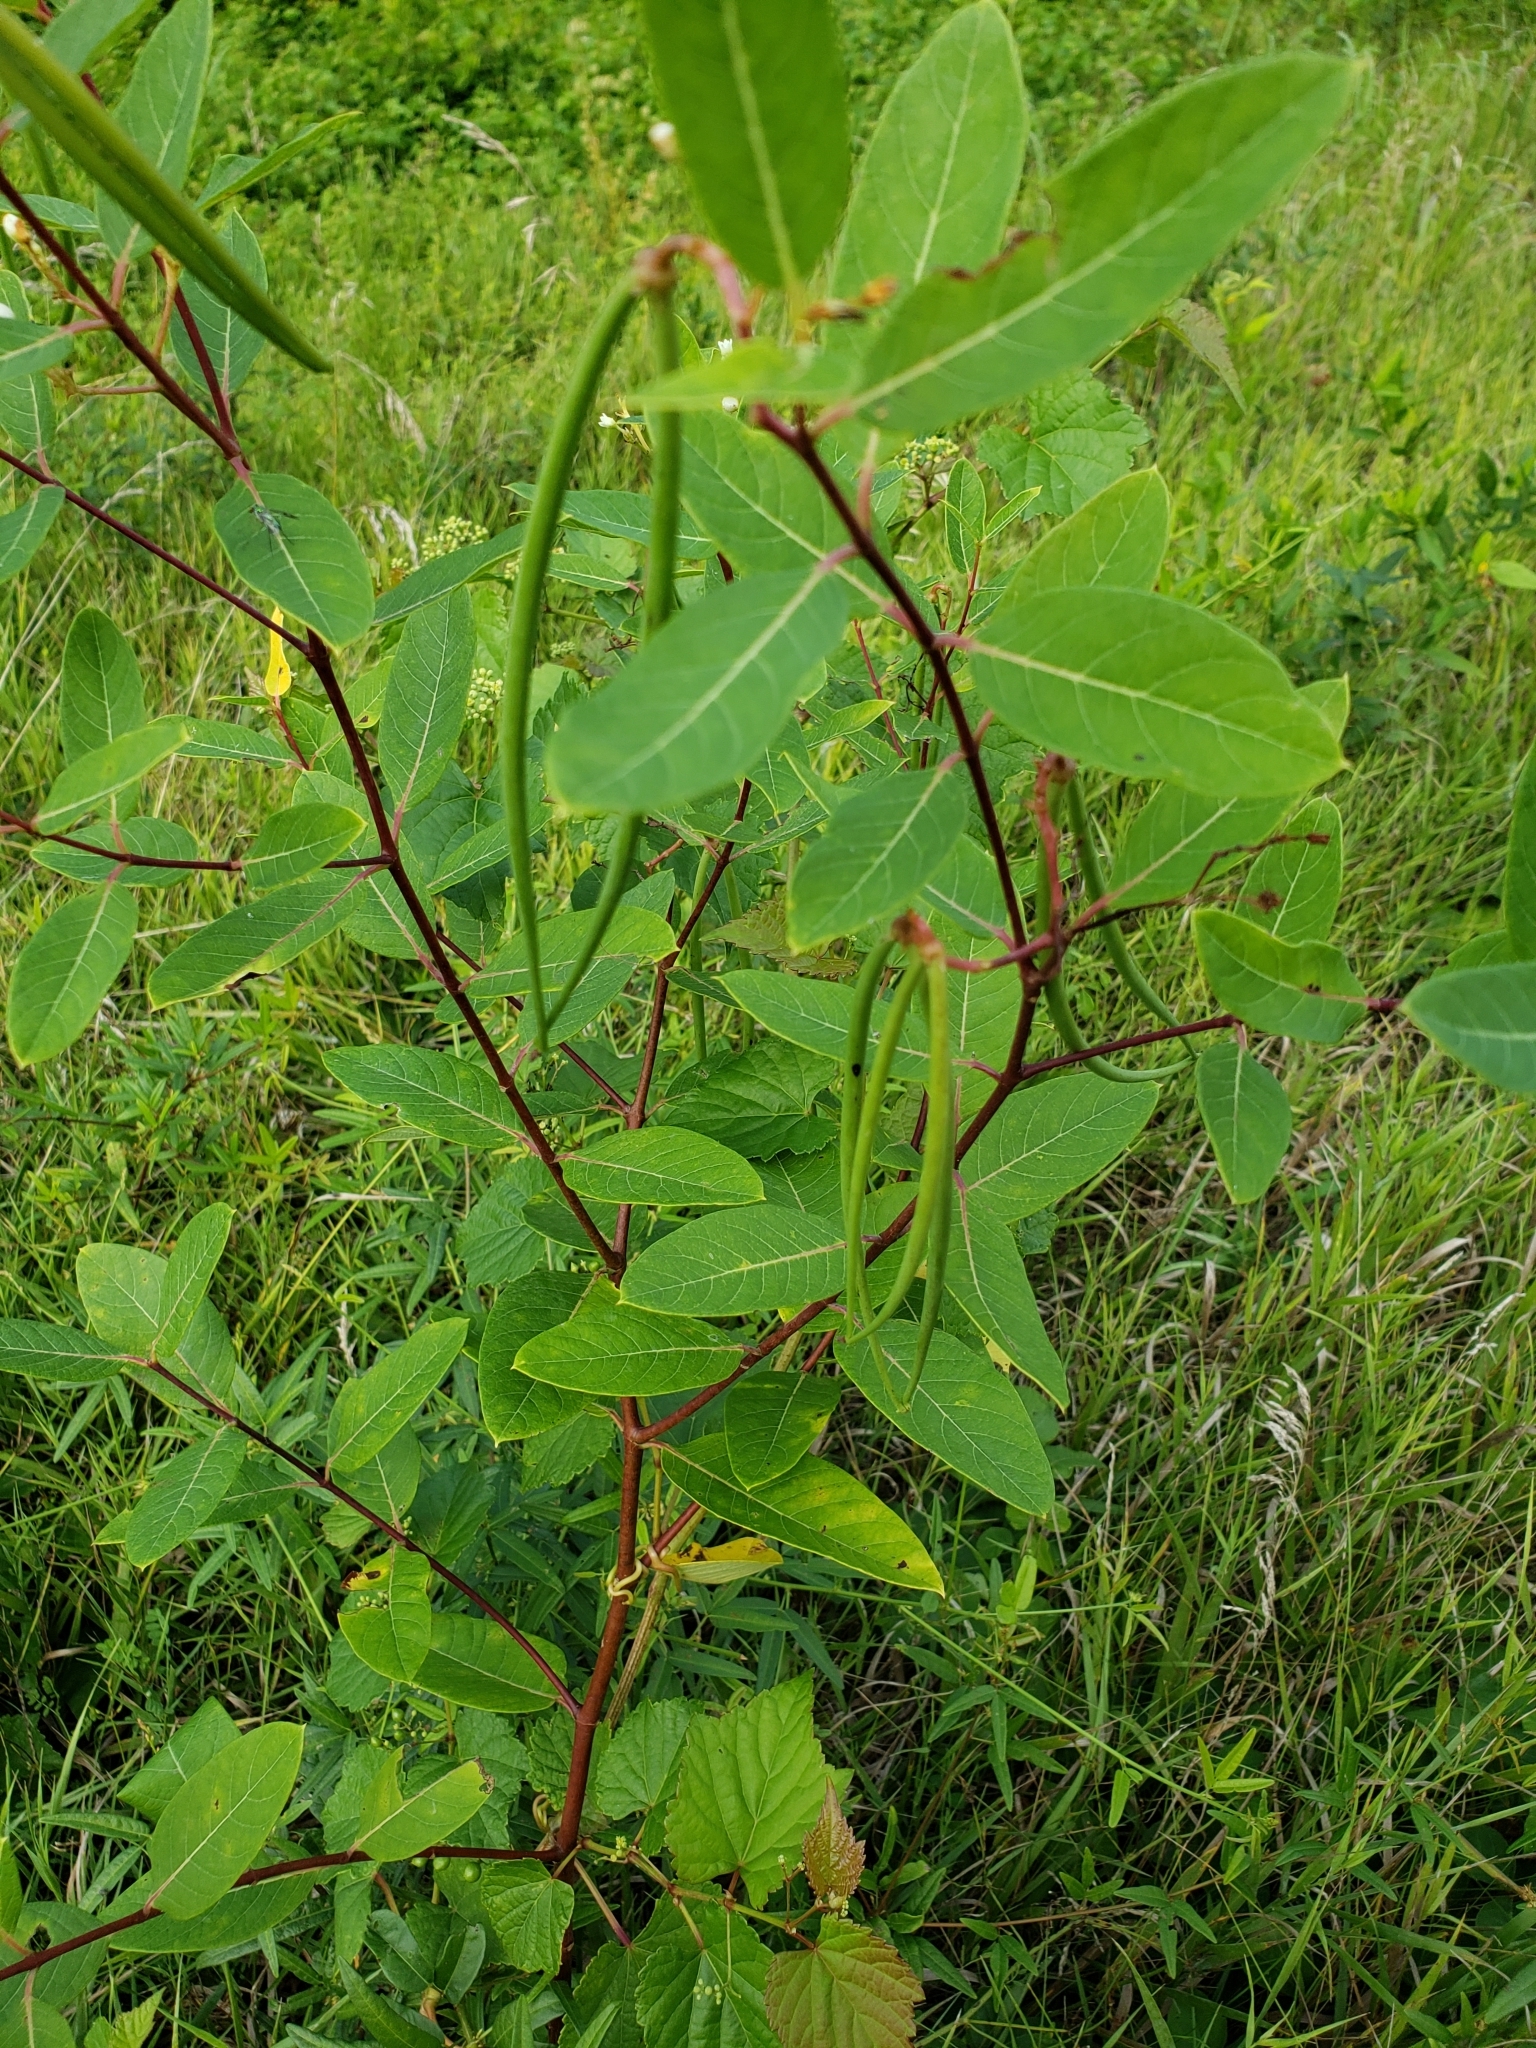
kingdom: Plantae
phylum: Tracheophyta
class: Magnoliopsida
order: Gentianales
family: Apocynaceae
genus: Apocynum
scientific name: Apocynum cannabinum
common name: Hemp dogbane
